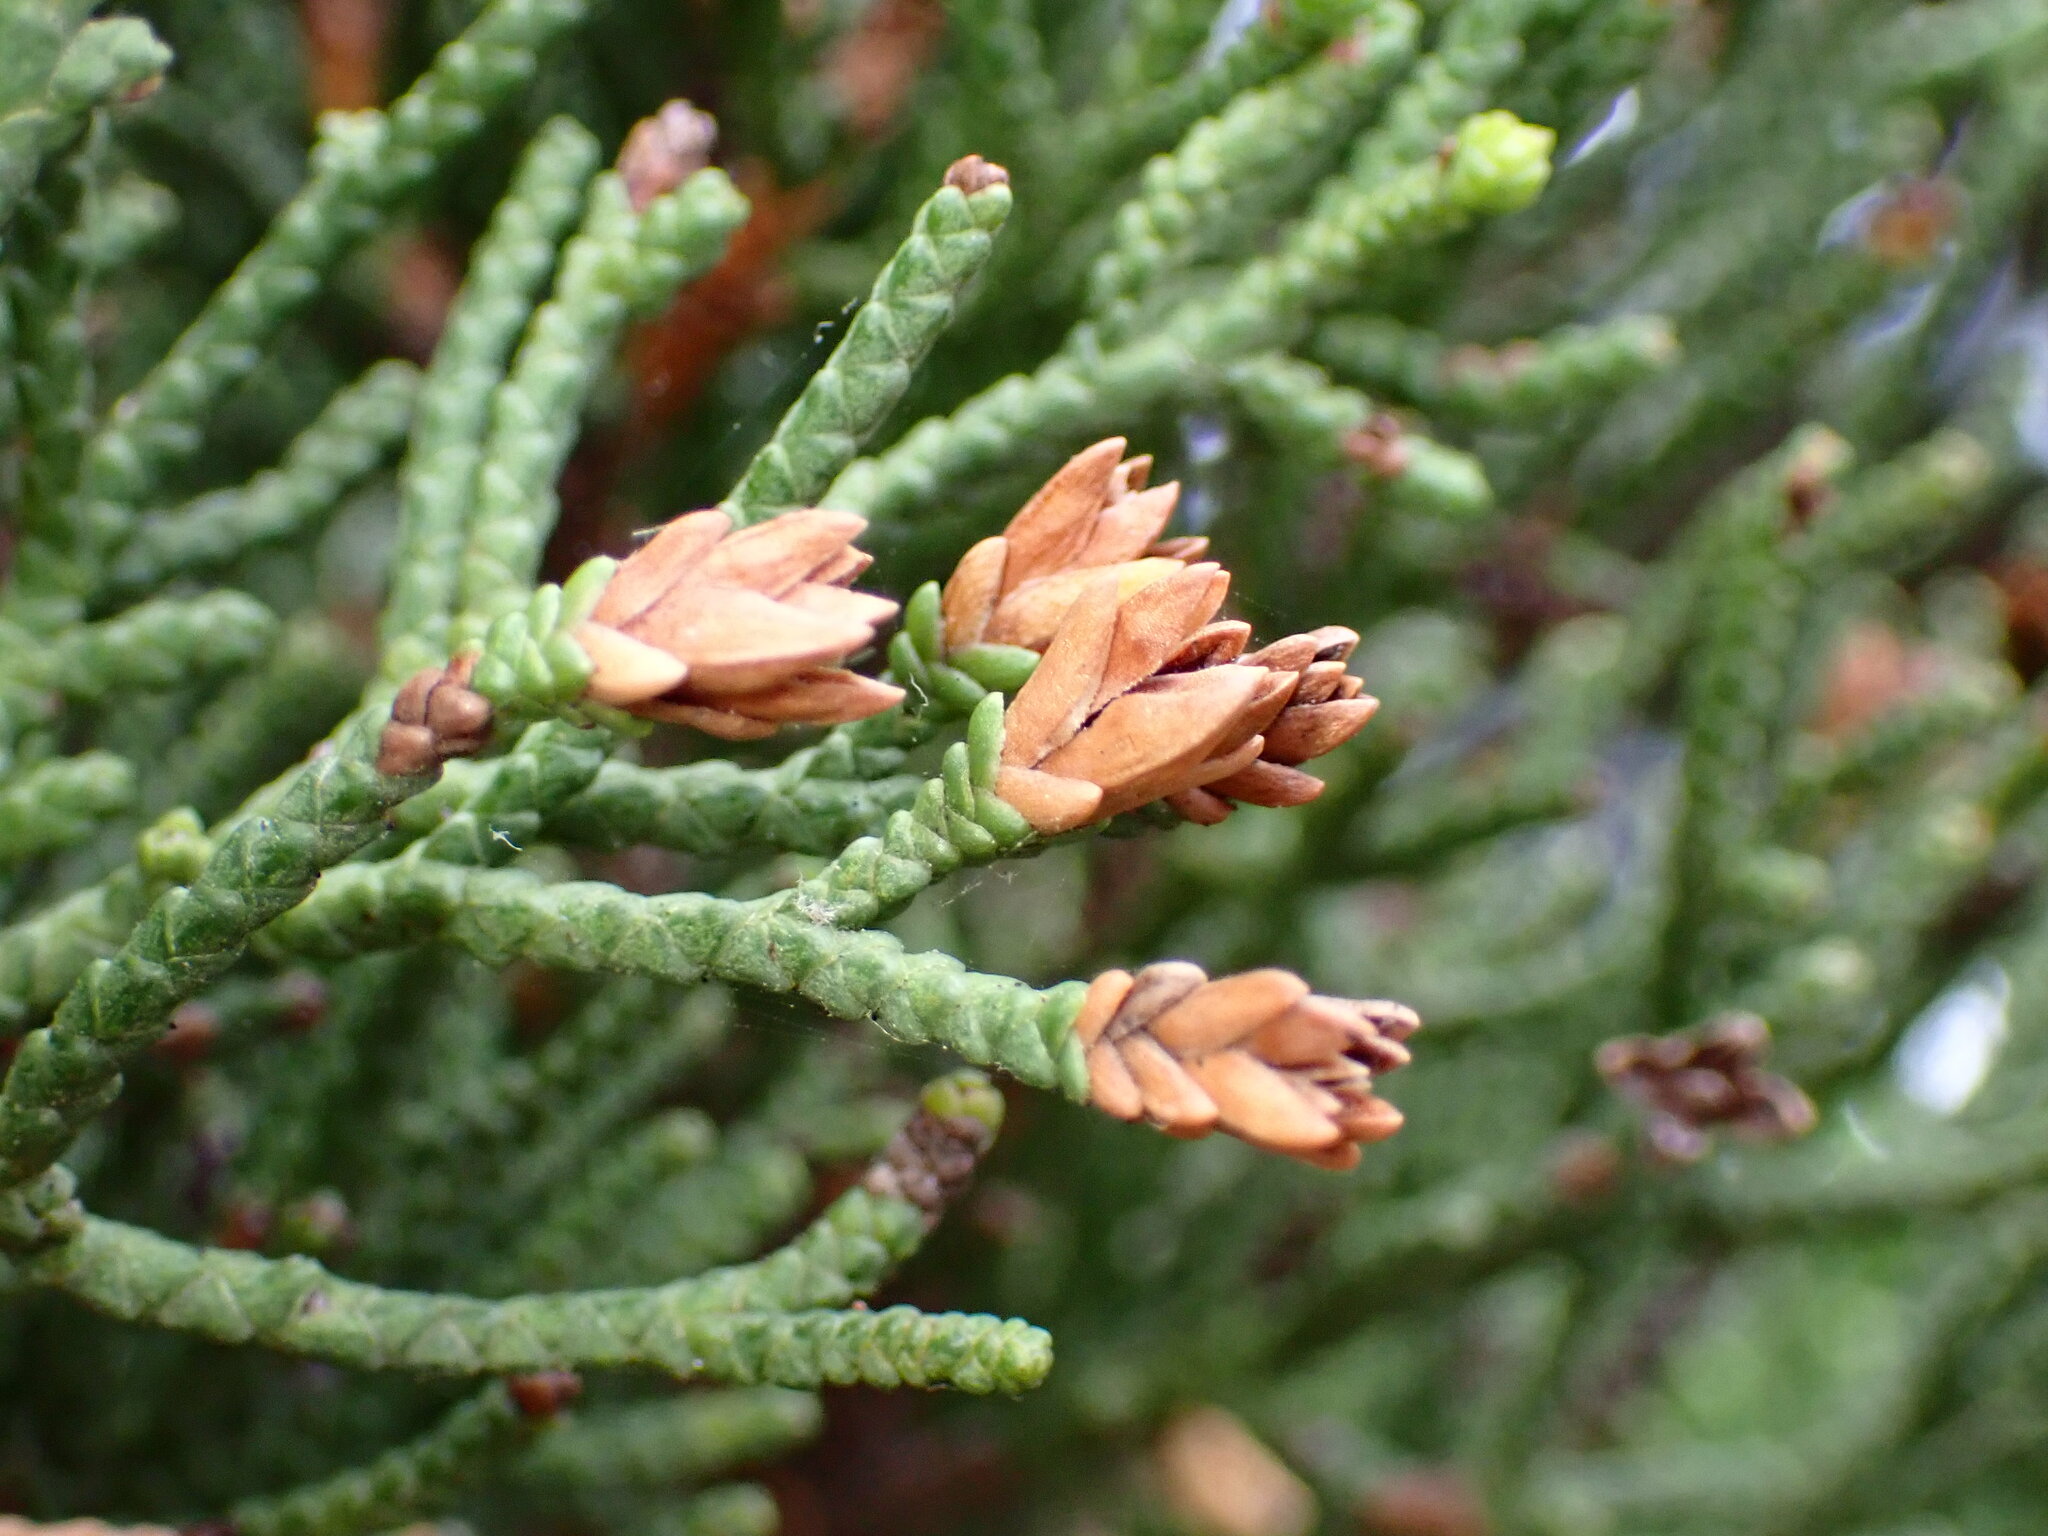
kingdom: Animalia
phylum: Arthropoda
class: Insecta
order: Diptera
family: Cecidomyiidae
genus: Oligotrophus
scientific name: Oligotrophus cupressi
